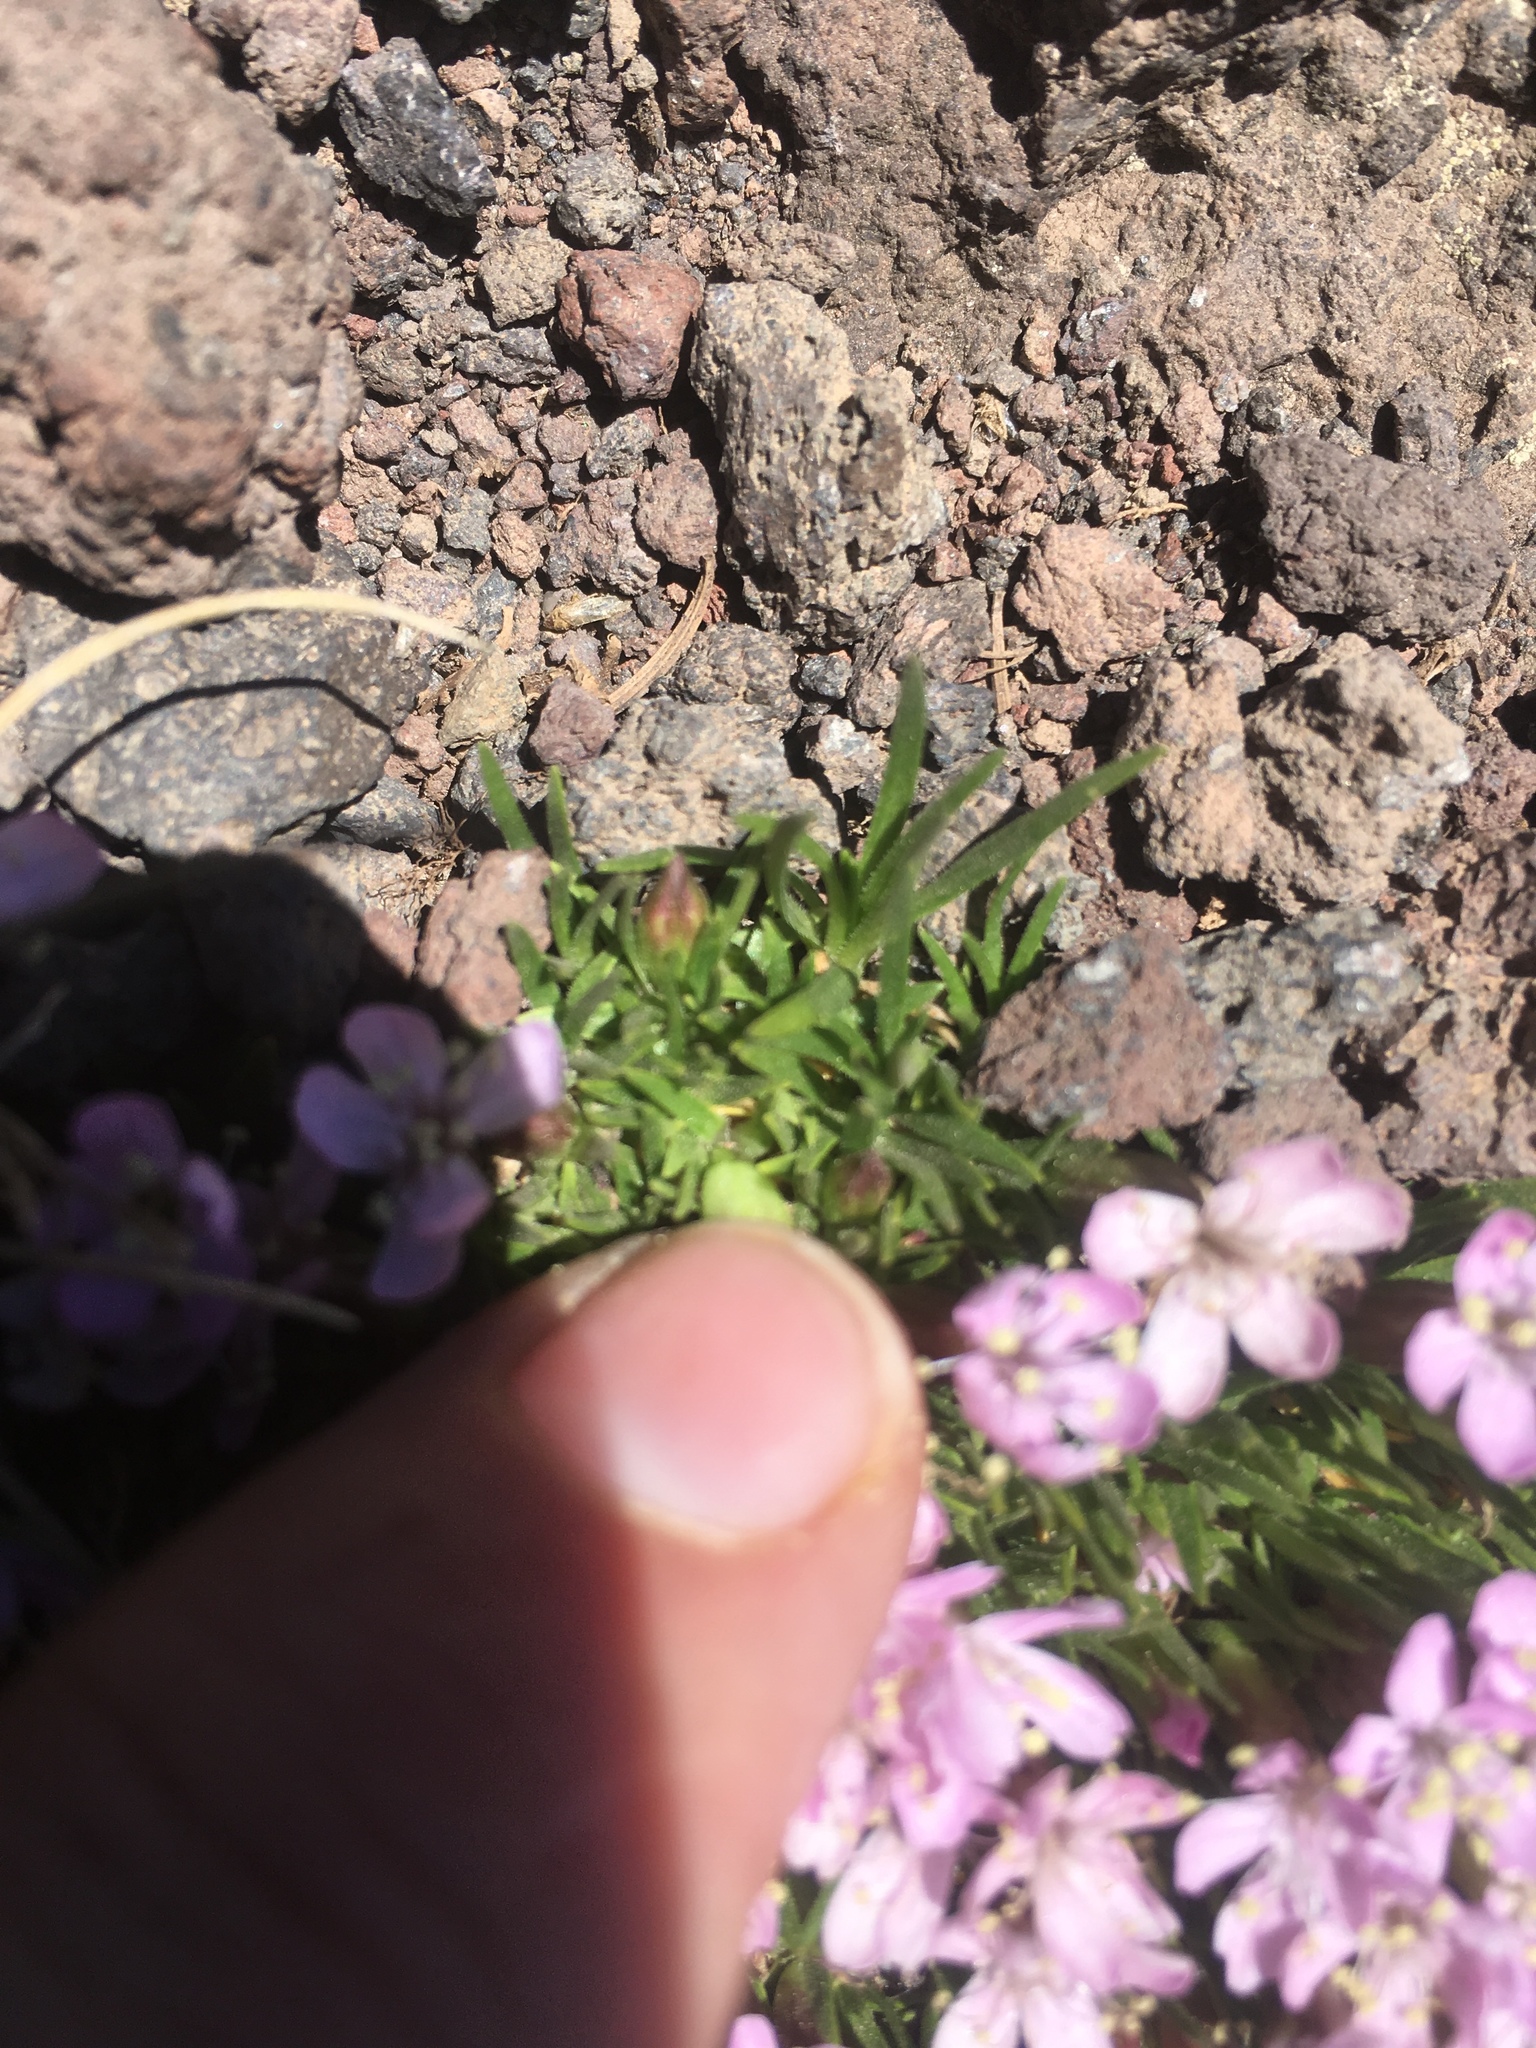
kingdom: Plantae
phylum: Tracheophyta
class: Magnoliopsida
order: Caryophyllales
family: Caryophyllaceae
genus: Silene
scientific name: Silene acaulis
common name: Moss campion
